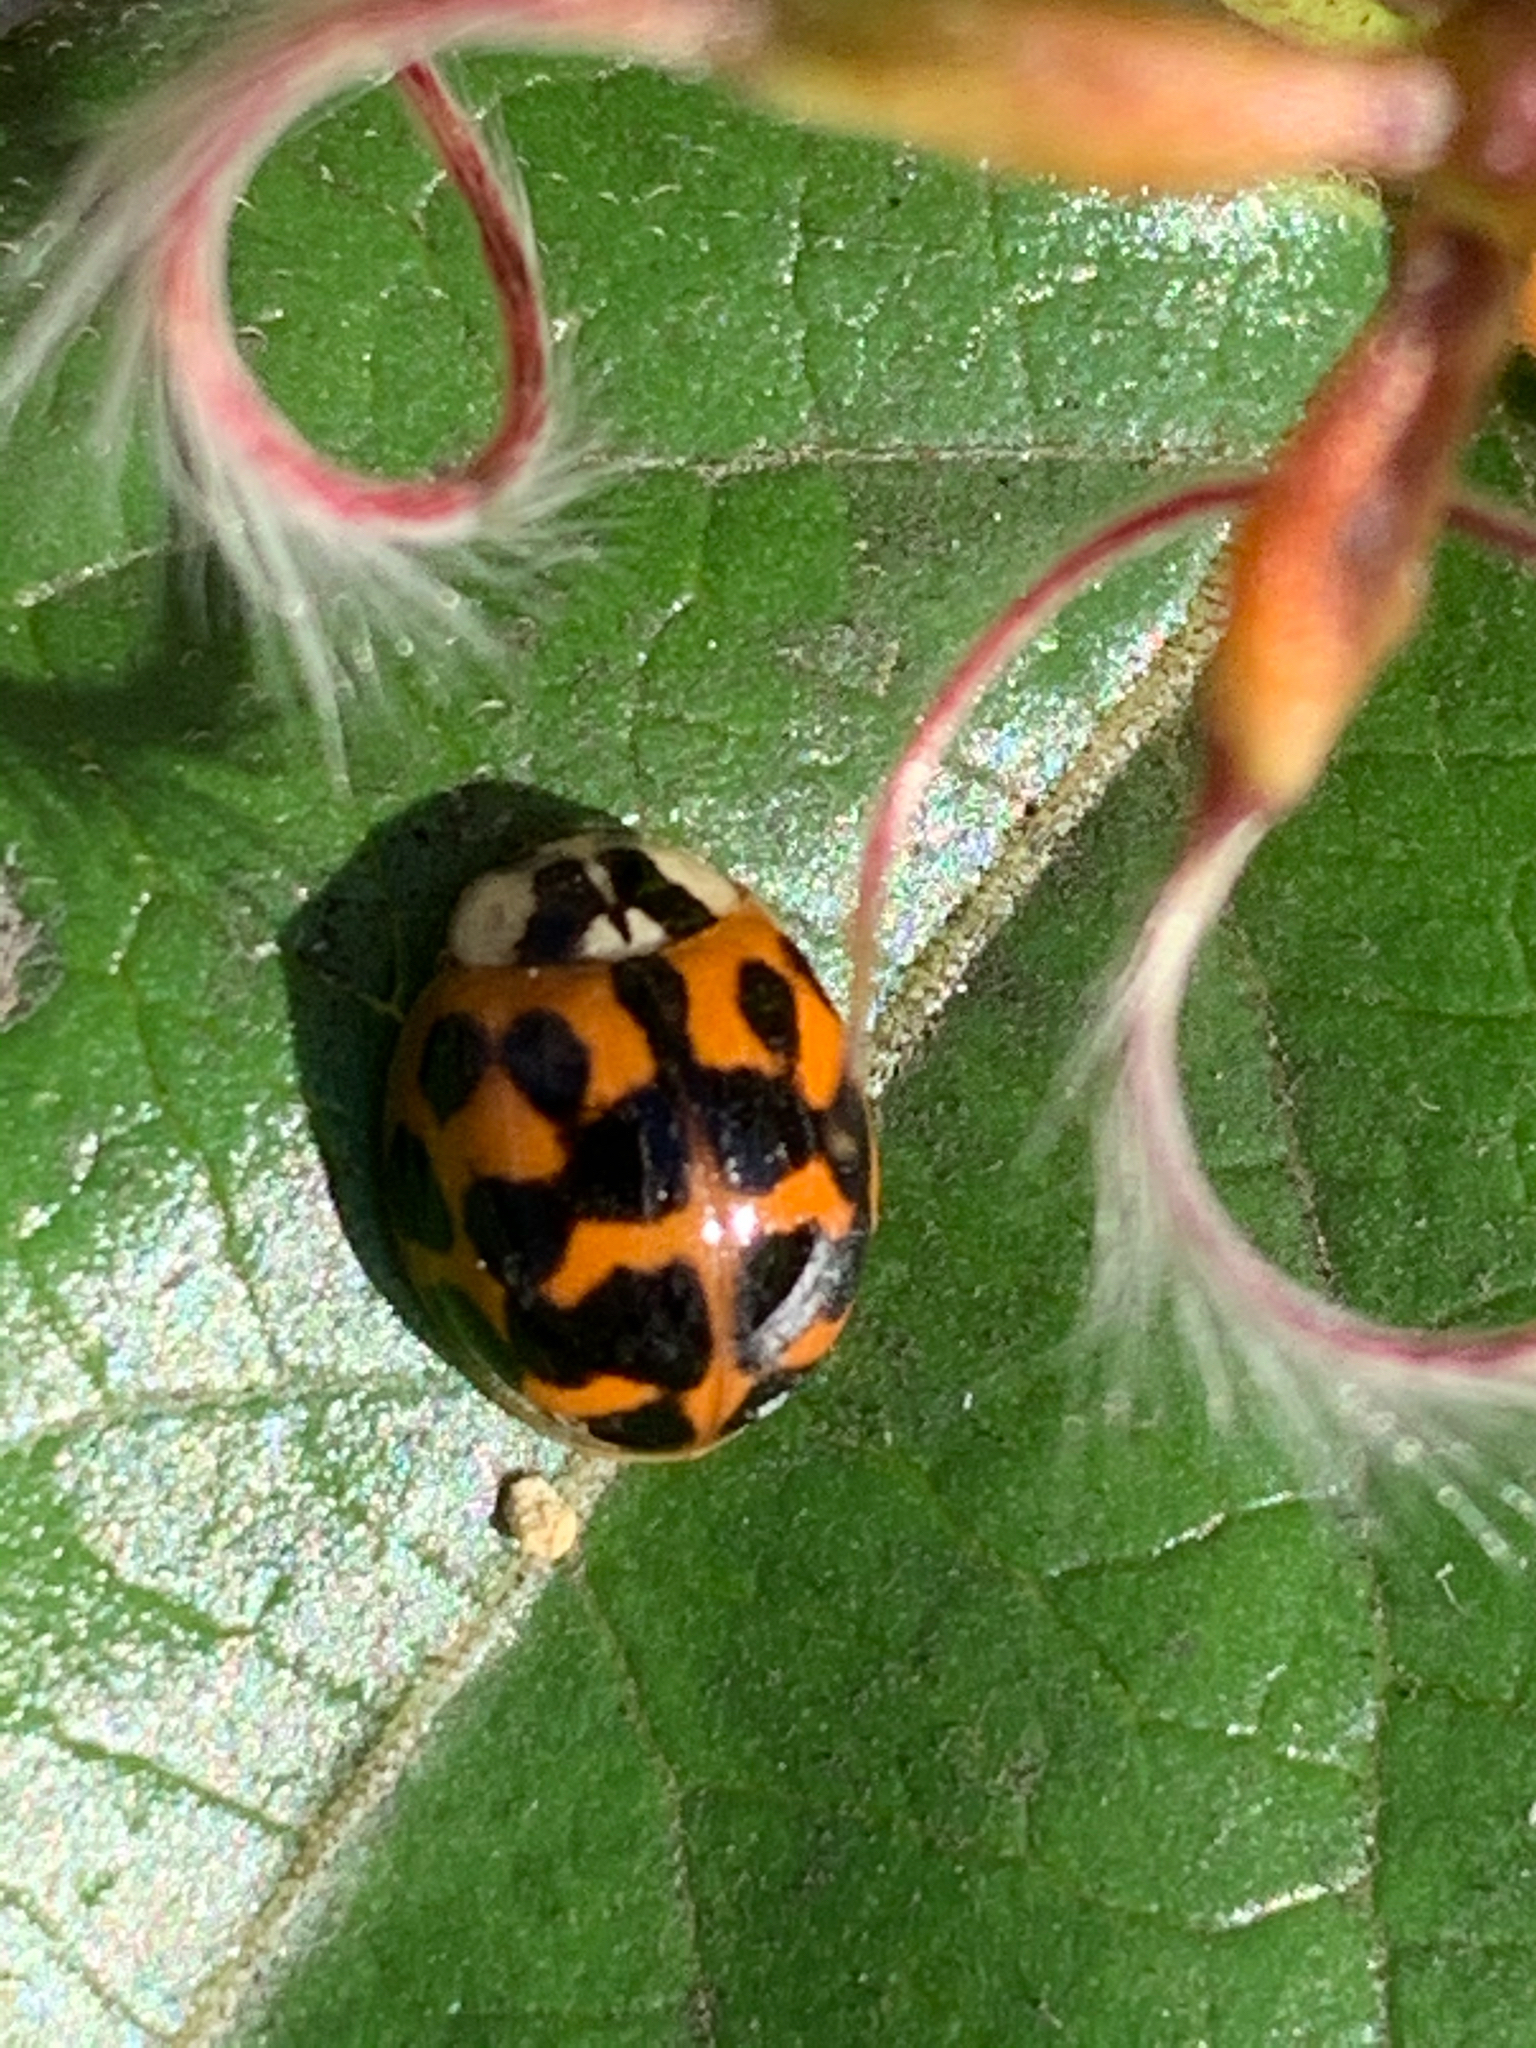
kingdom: Animalia
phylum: Arthropoda
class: Insecta
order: Coleoptera
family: Coccinellidae
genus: Harmonia
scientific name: Harmonia axyridis
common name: Harlequin ladybird
